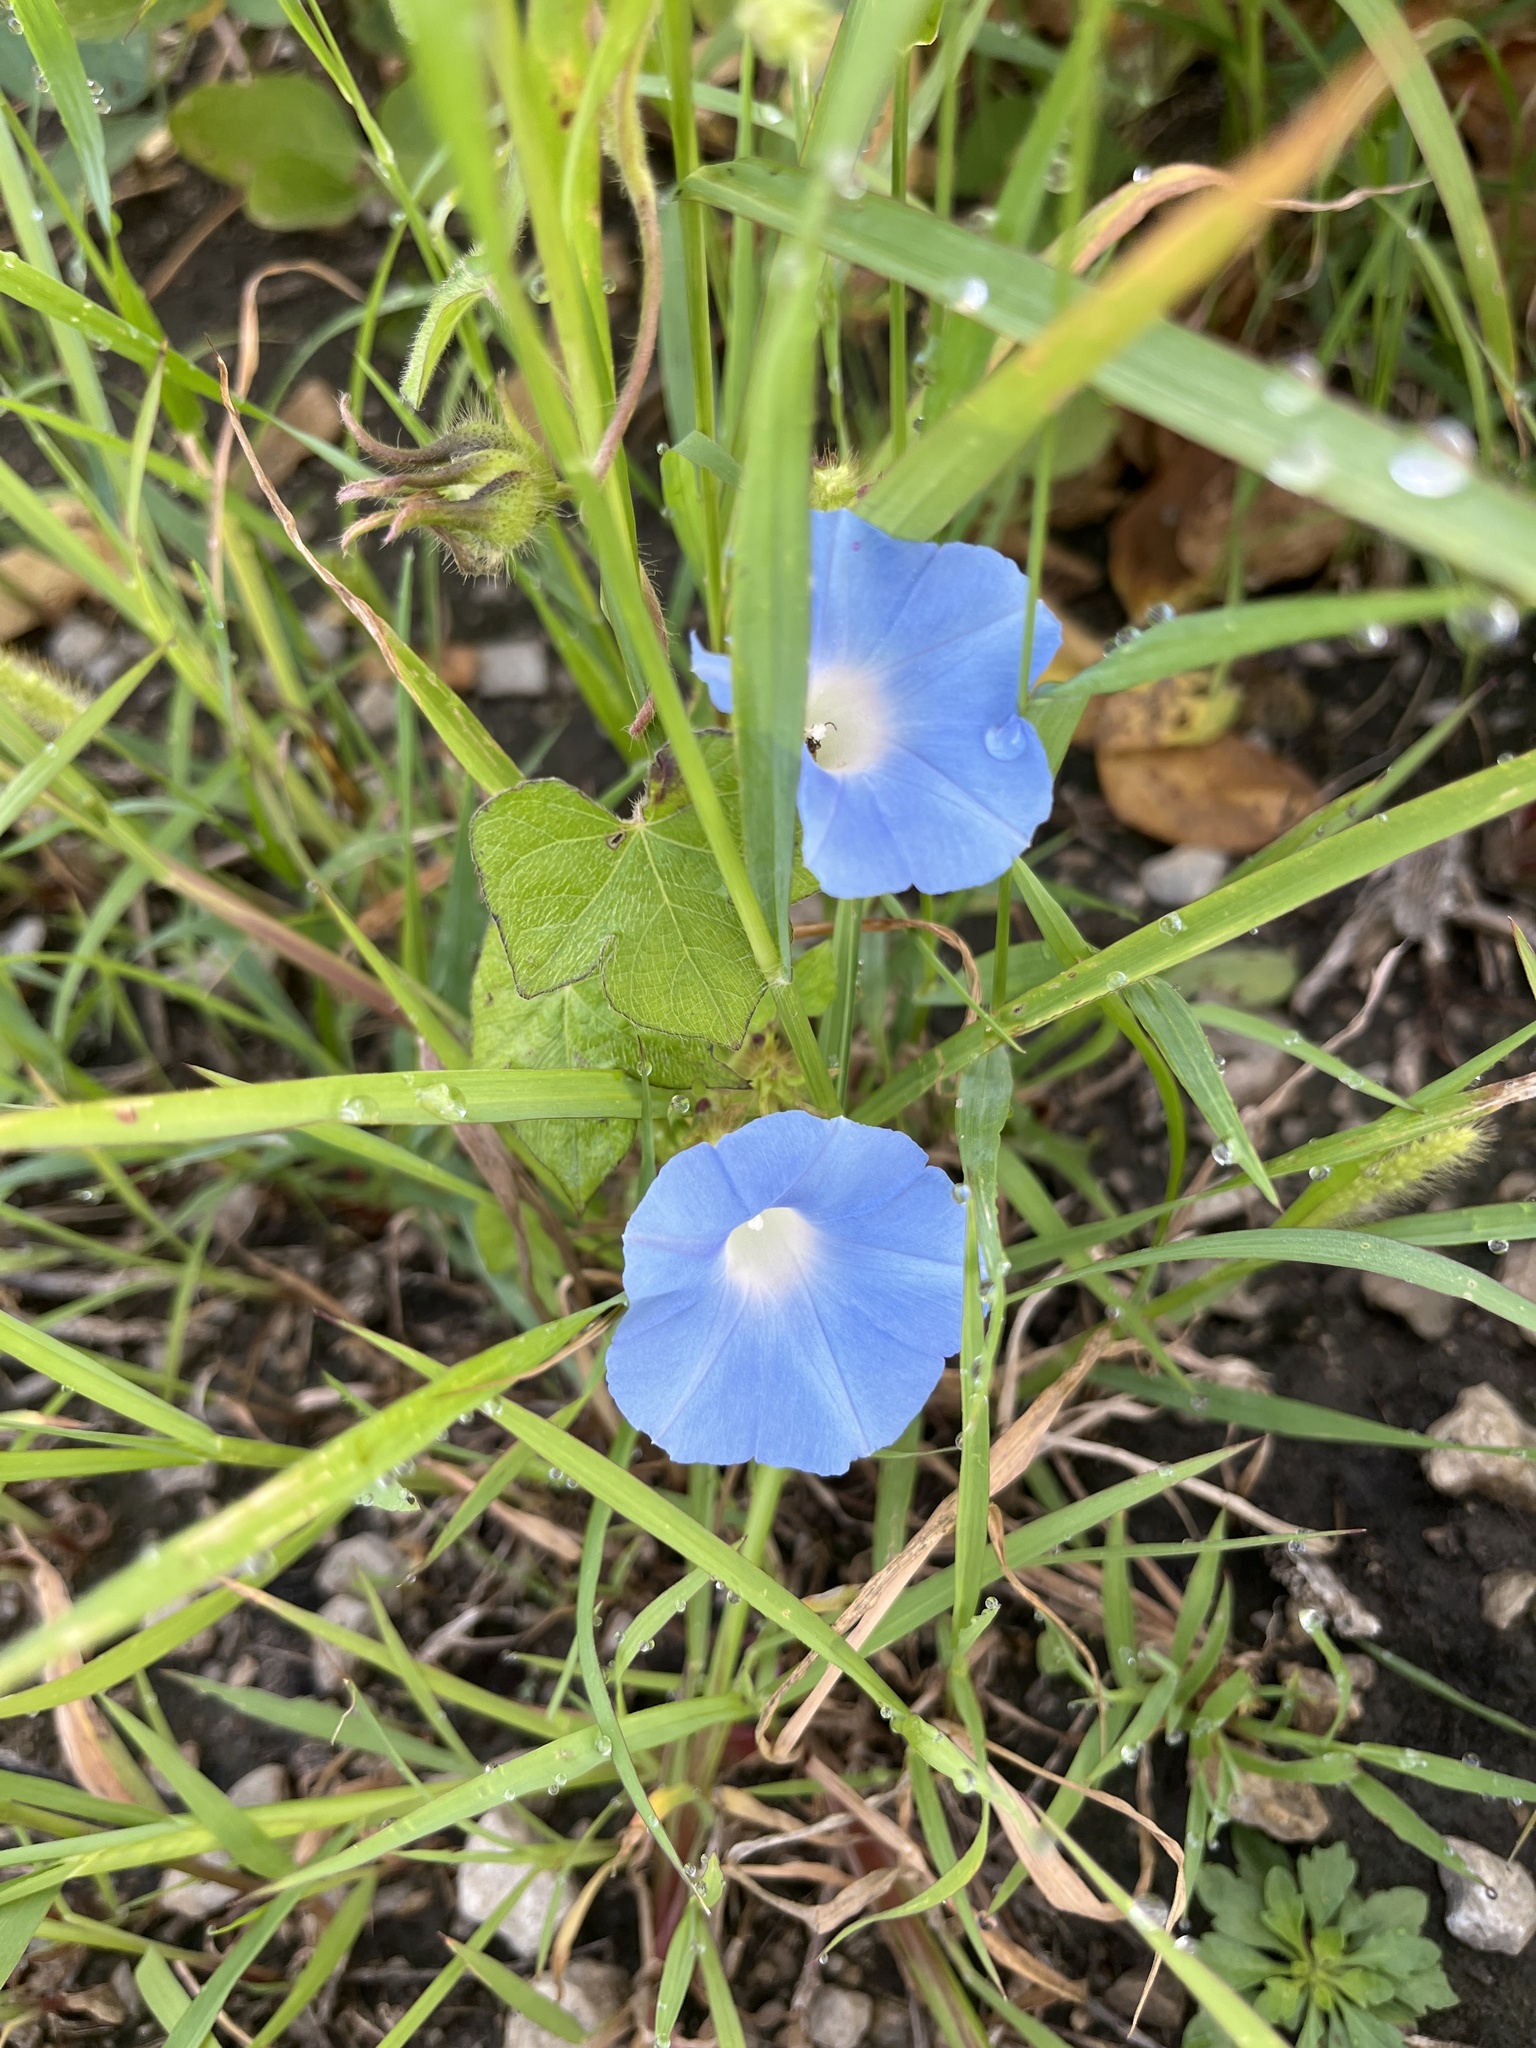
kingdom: Plantae
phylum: Tracheophyta
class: Magnoliopsida
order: Solanales
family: Convolvulaceae
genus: Ipomoea
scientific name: Ipomoea hederacea
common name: Ivy-leaved morning-glory
